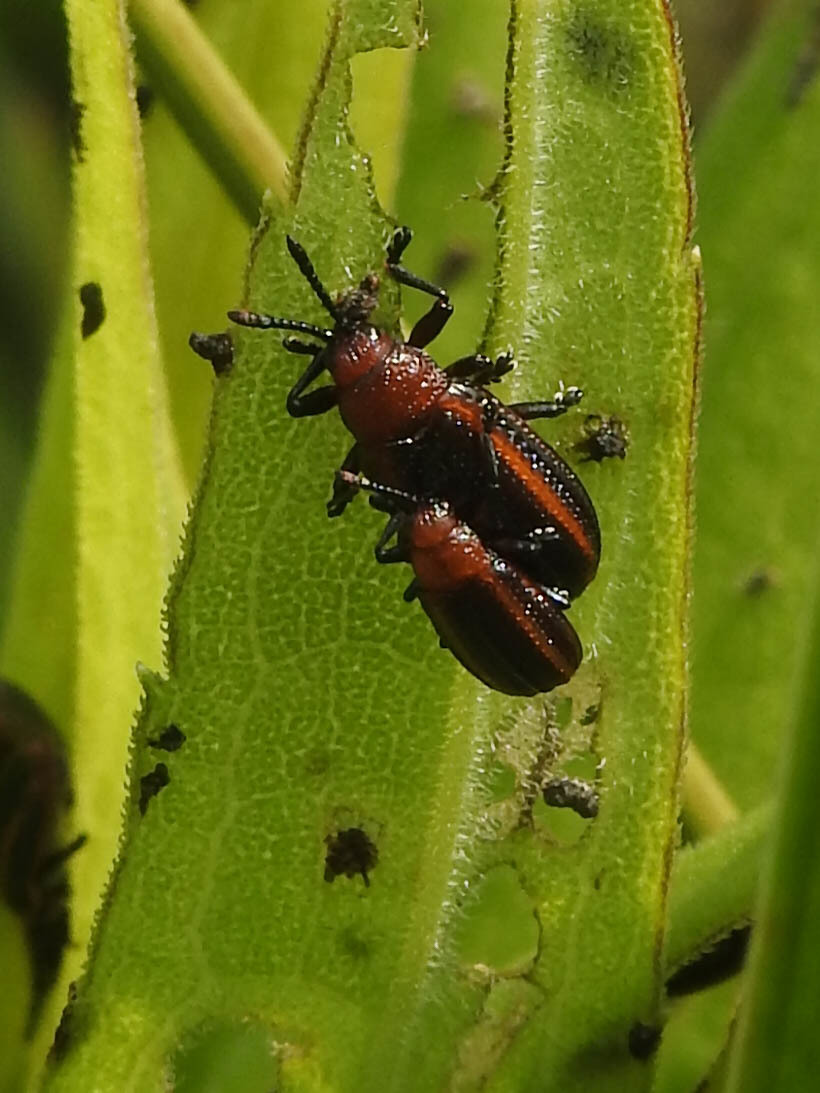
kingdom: Animalia
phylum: Arthropoda
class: Insecta
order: Coleoptera
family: Chrysomelidae
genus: Microrhopala
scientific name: Microrhopala vittata
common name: Goldenrod leaf miner beetle
